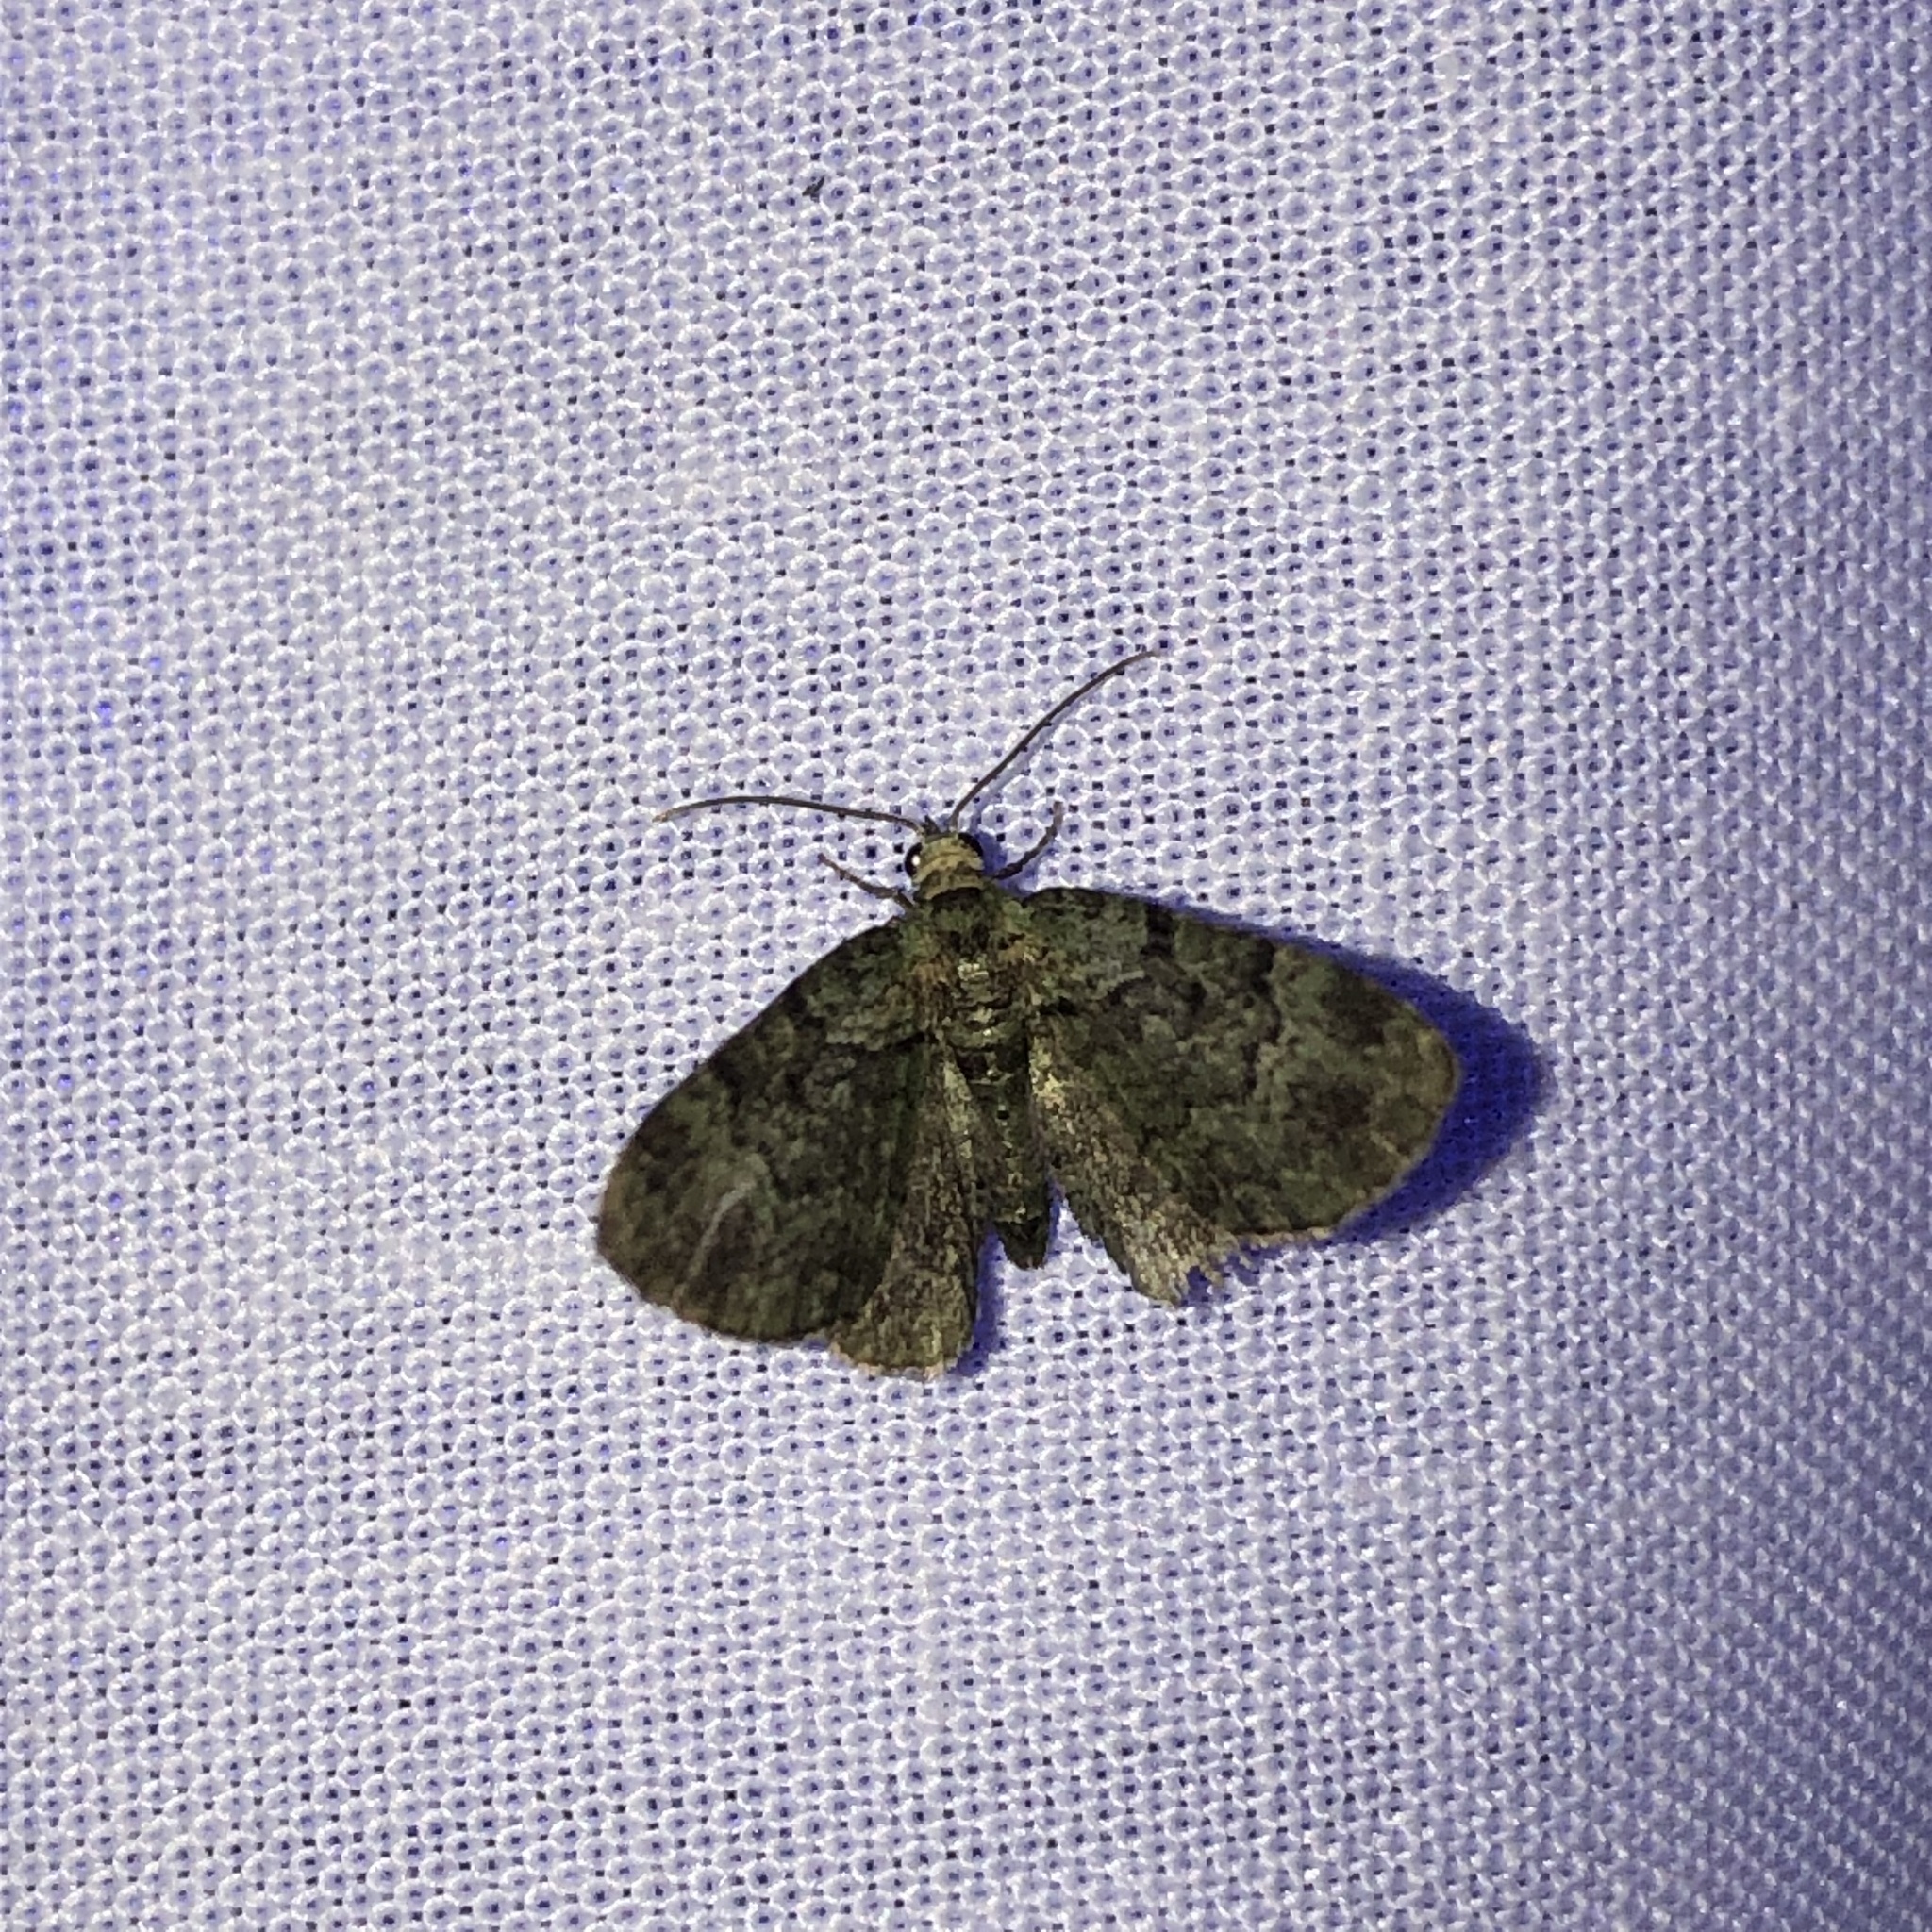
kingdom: Animalia
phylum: Arthropoda
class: Insecta
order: Lepidoptera
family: Geometridae
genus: Pasiphila
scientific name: Pasiphila rectangulata
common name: Green pug
